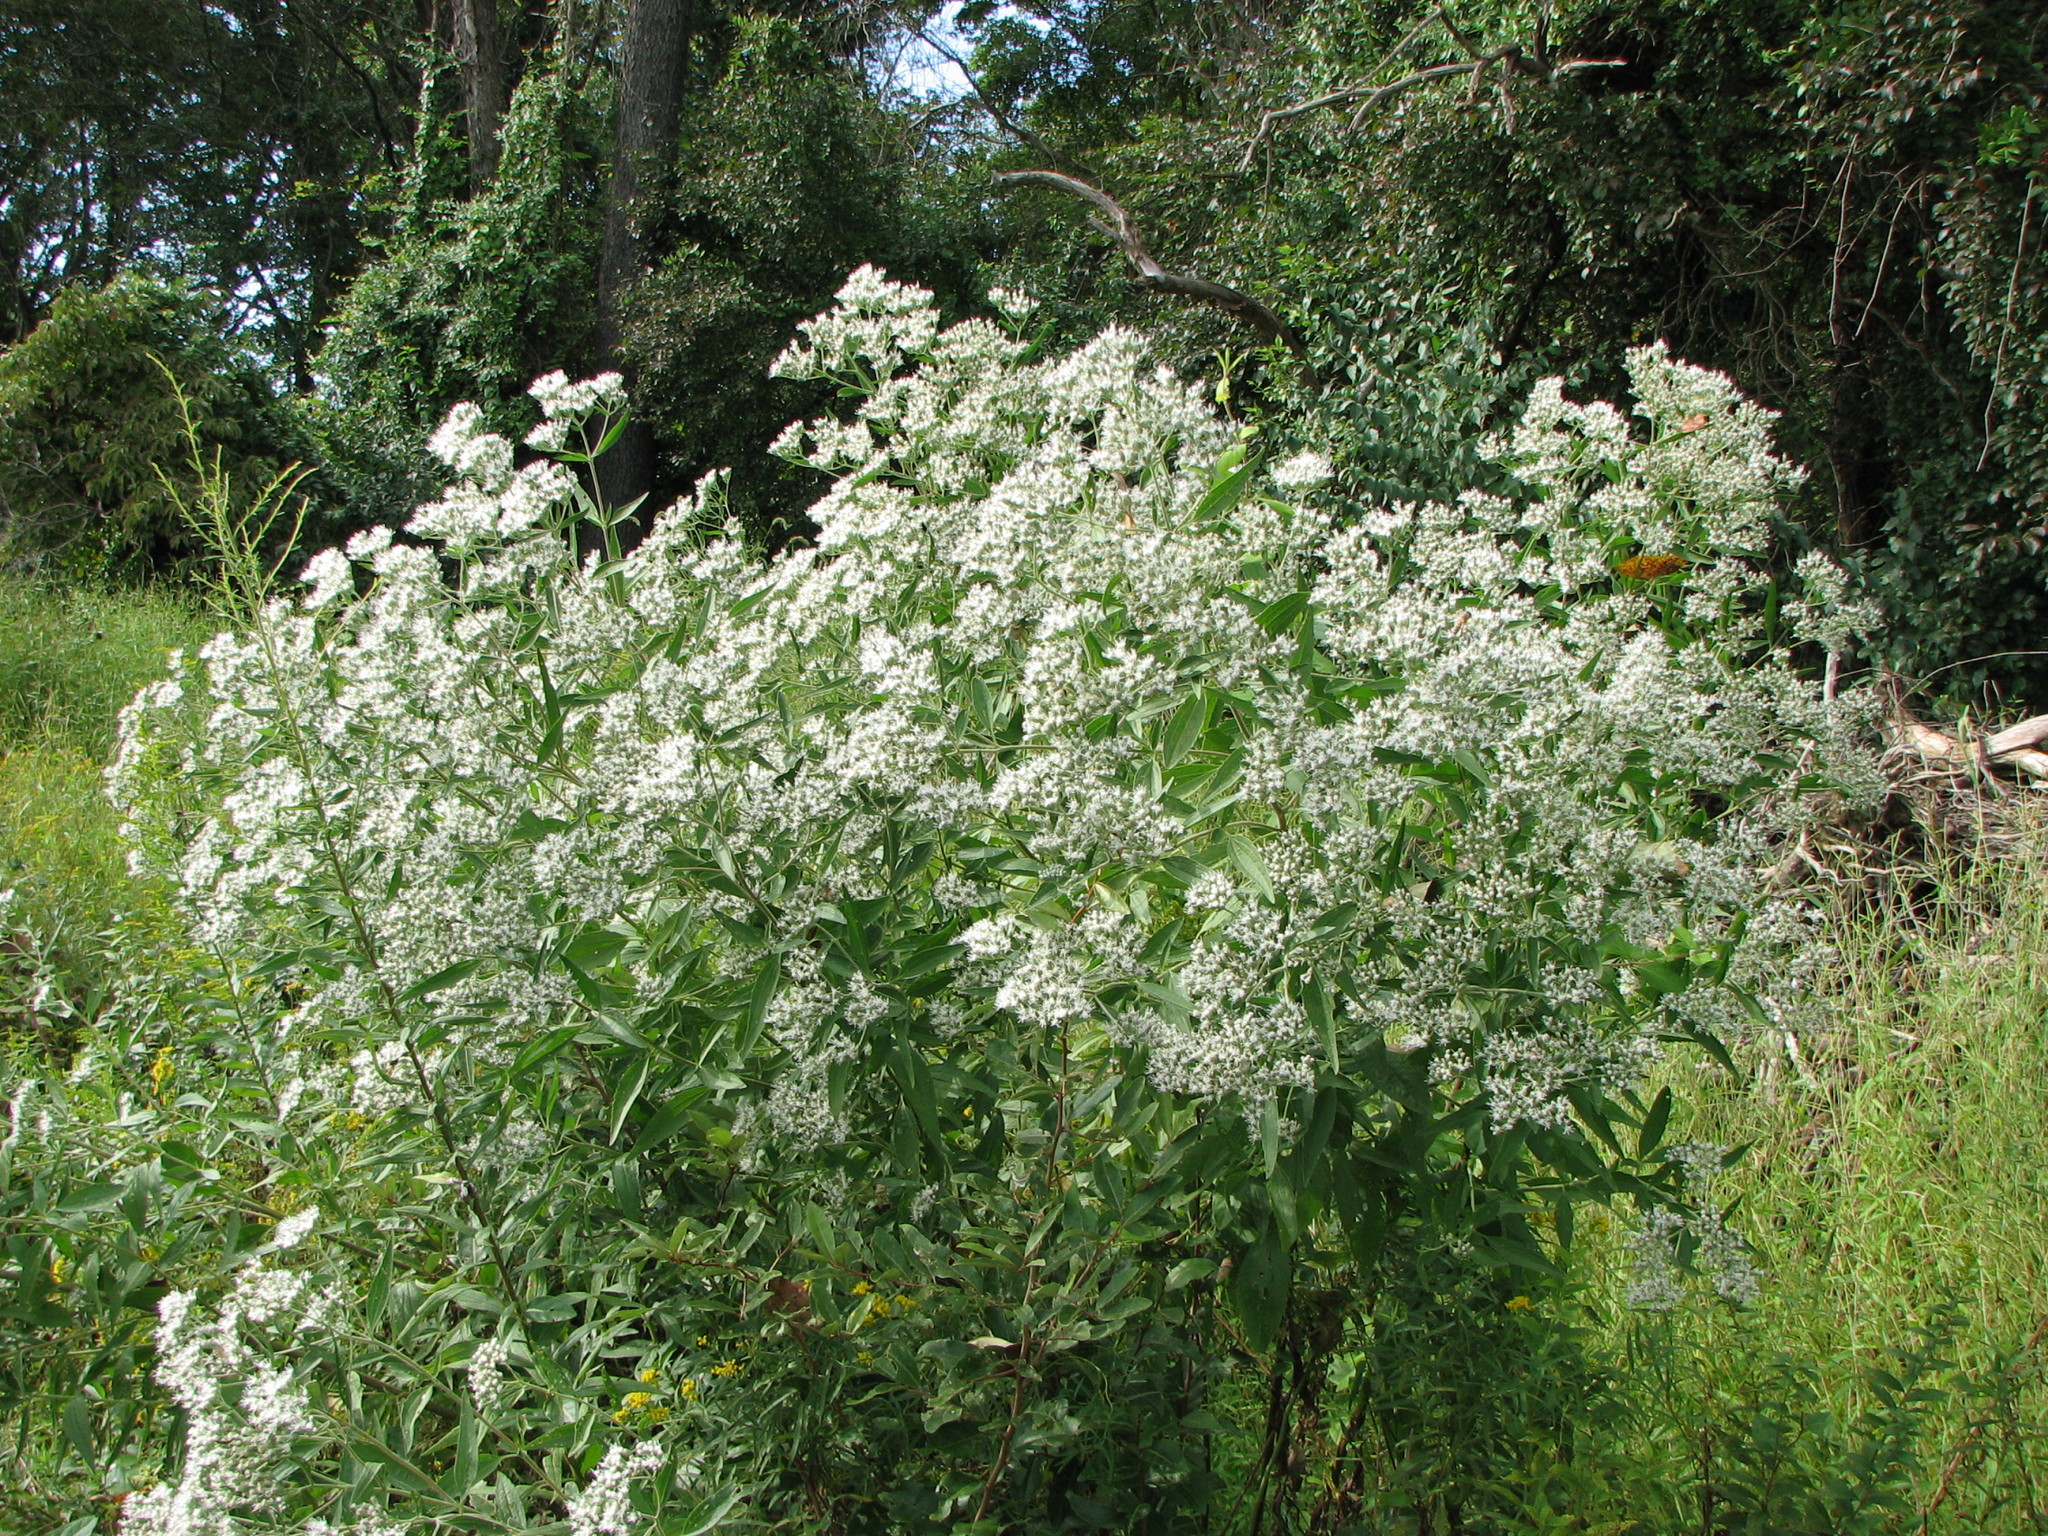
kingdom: Plantae
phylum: Tracheophyta
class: Magnoliopsida
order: Asterales
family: Asteraceae
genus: Eupatorium
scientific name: Eupatorium serotinum
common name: Late boneset
